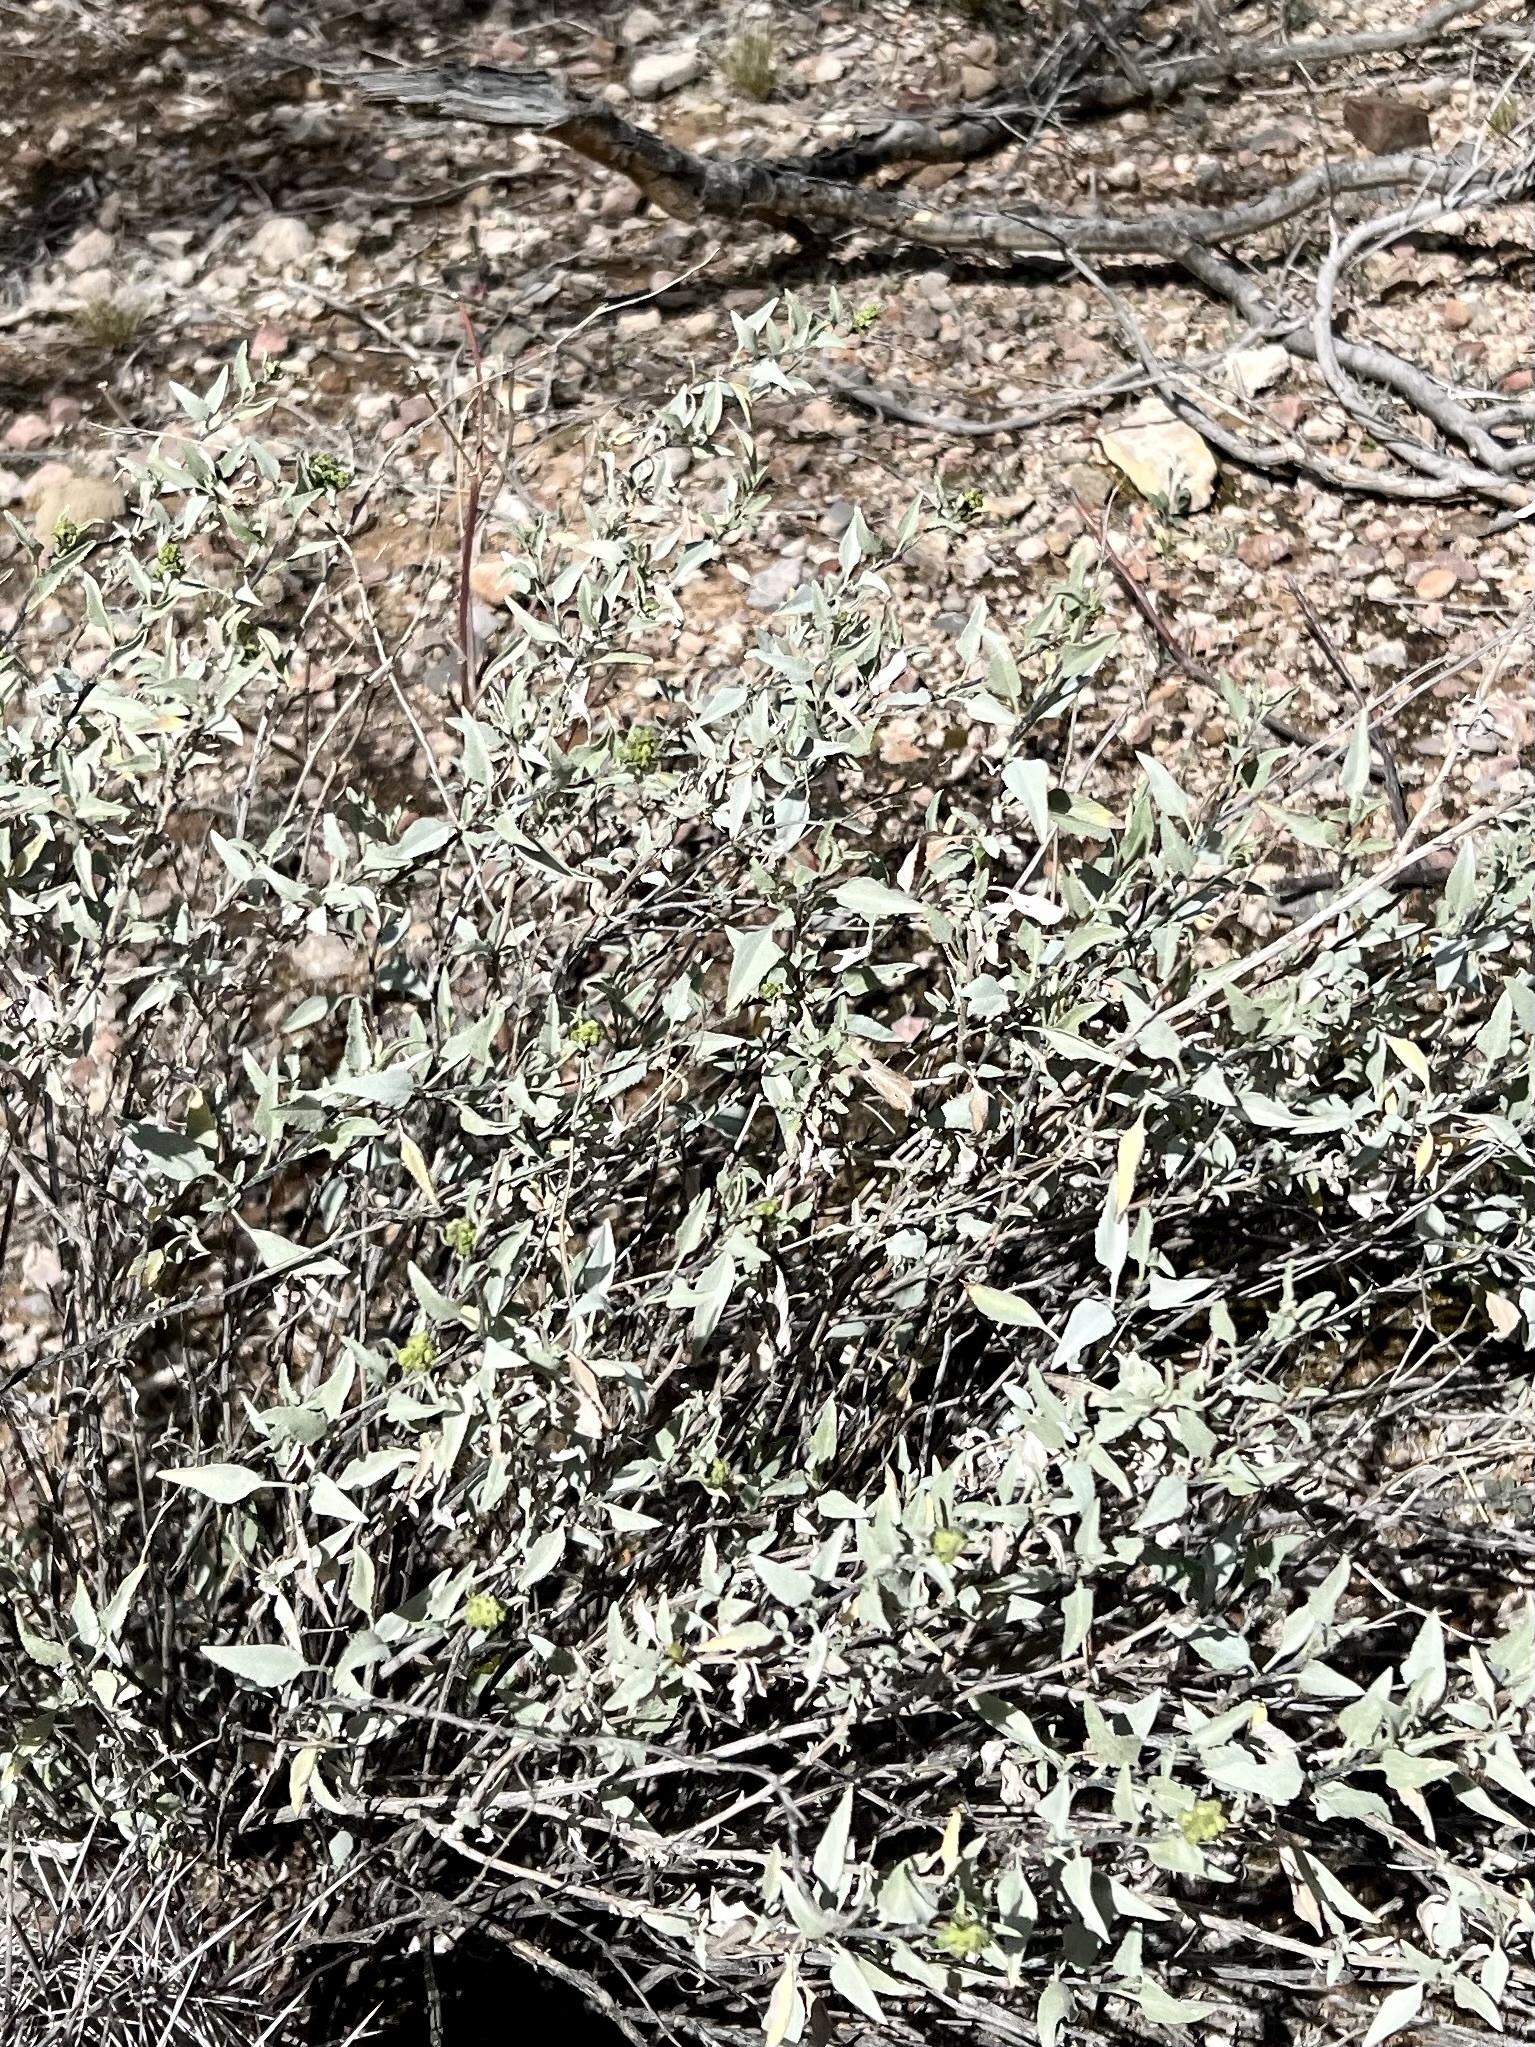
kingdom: Plantae
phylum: Tracheophyta
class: Magnoliopsida
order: Asterales
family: Asteraceae
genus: Ambrosia
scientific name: Ambrosia deltoidea
